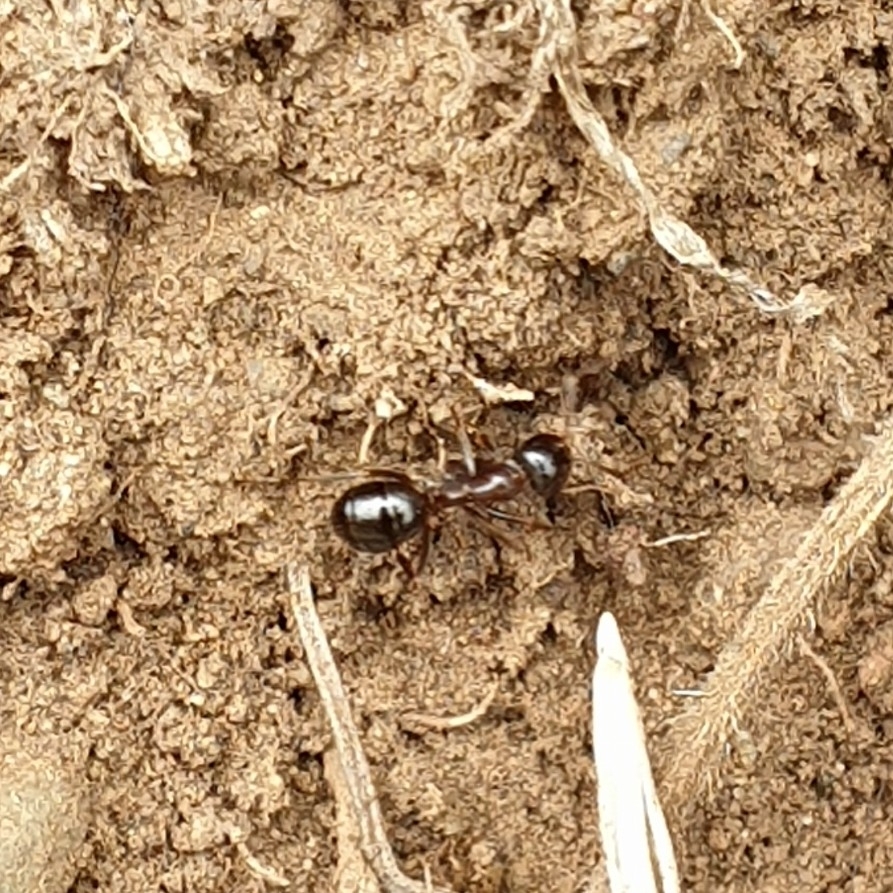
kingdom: Animalia
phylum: Arthropoda
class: Insecta
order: Hymenoptera
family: Formicidae
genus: Formica
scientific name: Formica subpolita
